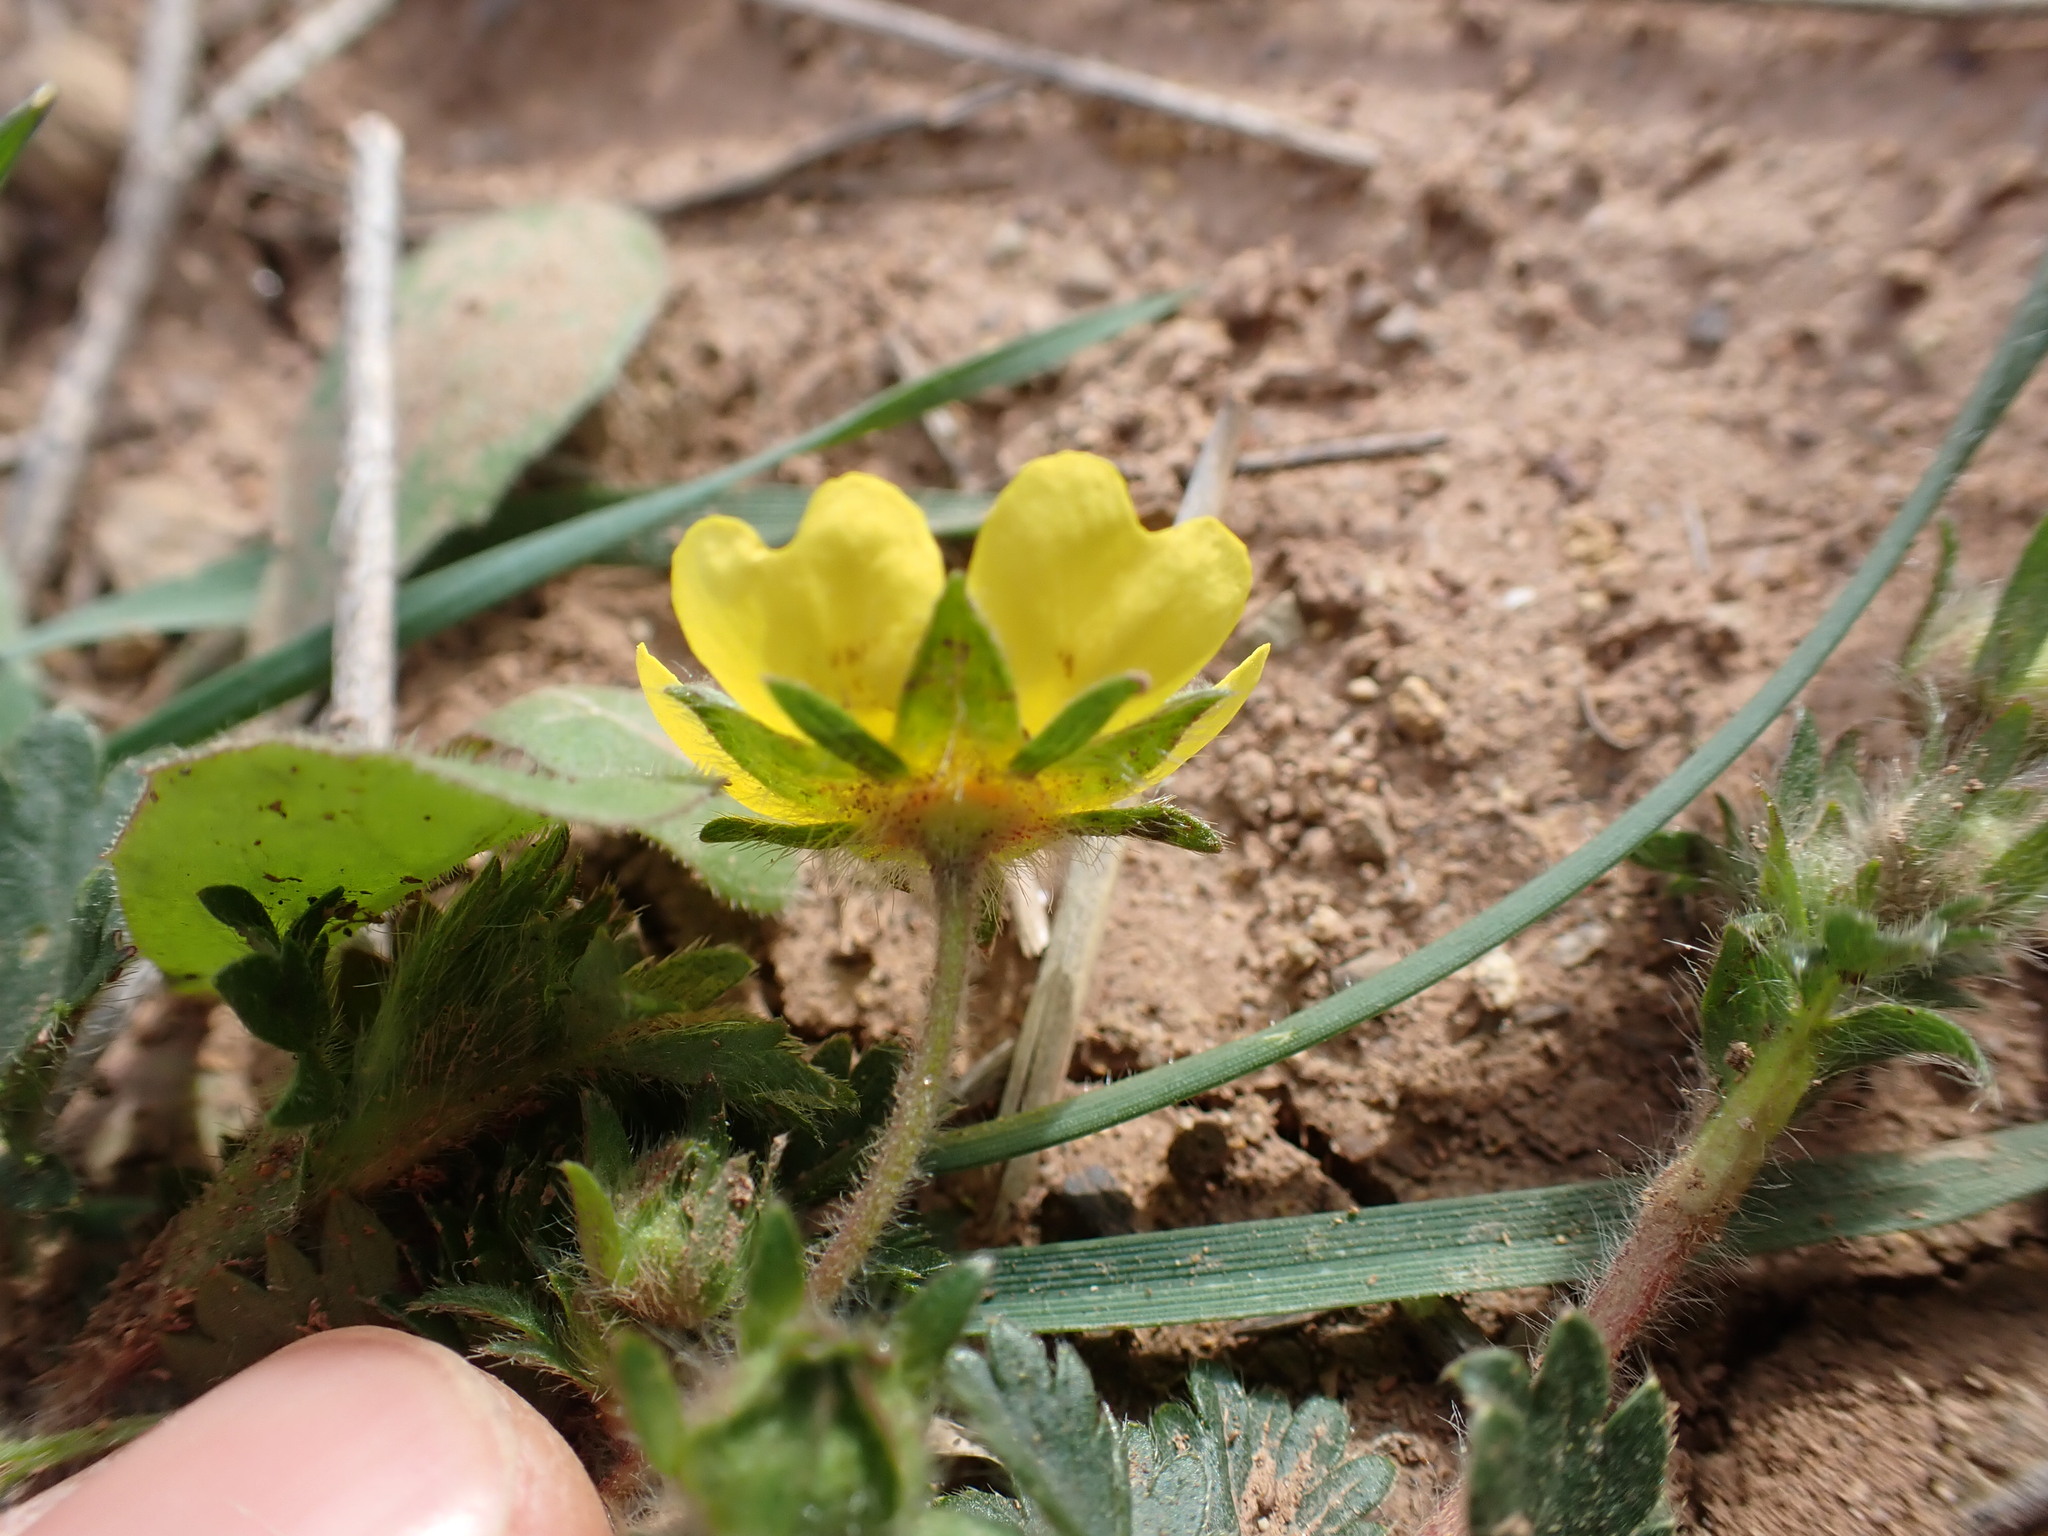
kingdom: Plantae
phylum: Tracheophyta
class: Magnoliopsida
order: Rosales
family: Rosaceae
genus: Potentilla
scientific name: Potentilla verna
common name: Spring cinquefoil
